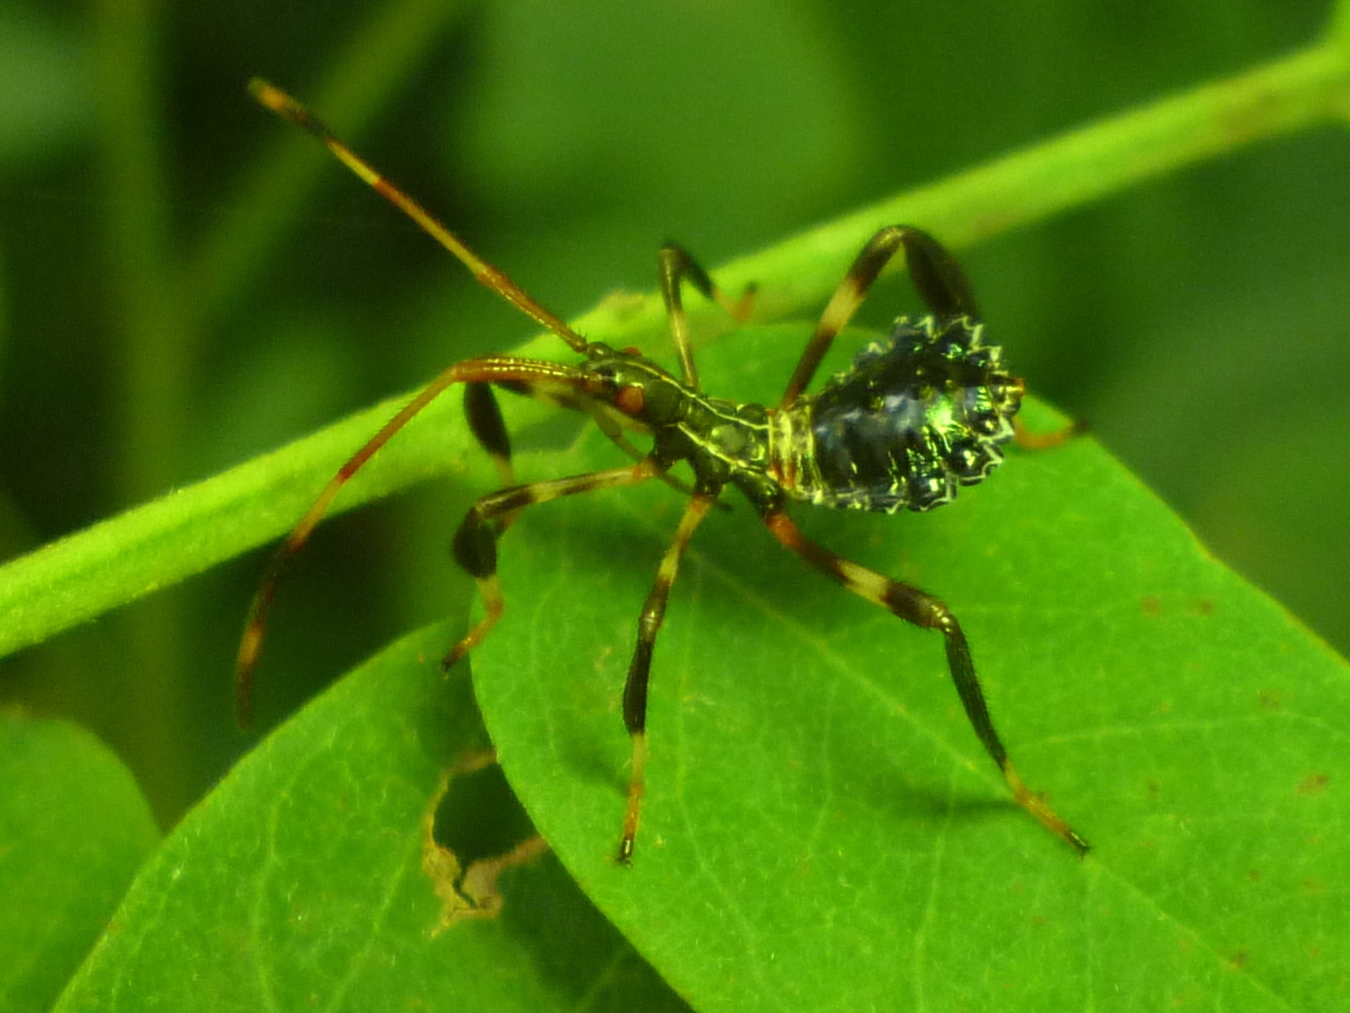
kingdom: Animalia
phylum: Arthropoda
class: Insecta
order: Hemiptera
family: Coreidae
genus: Acanthocephala
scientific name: Acanthocephala terminalis
